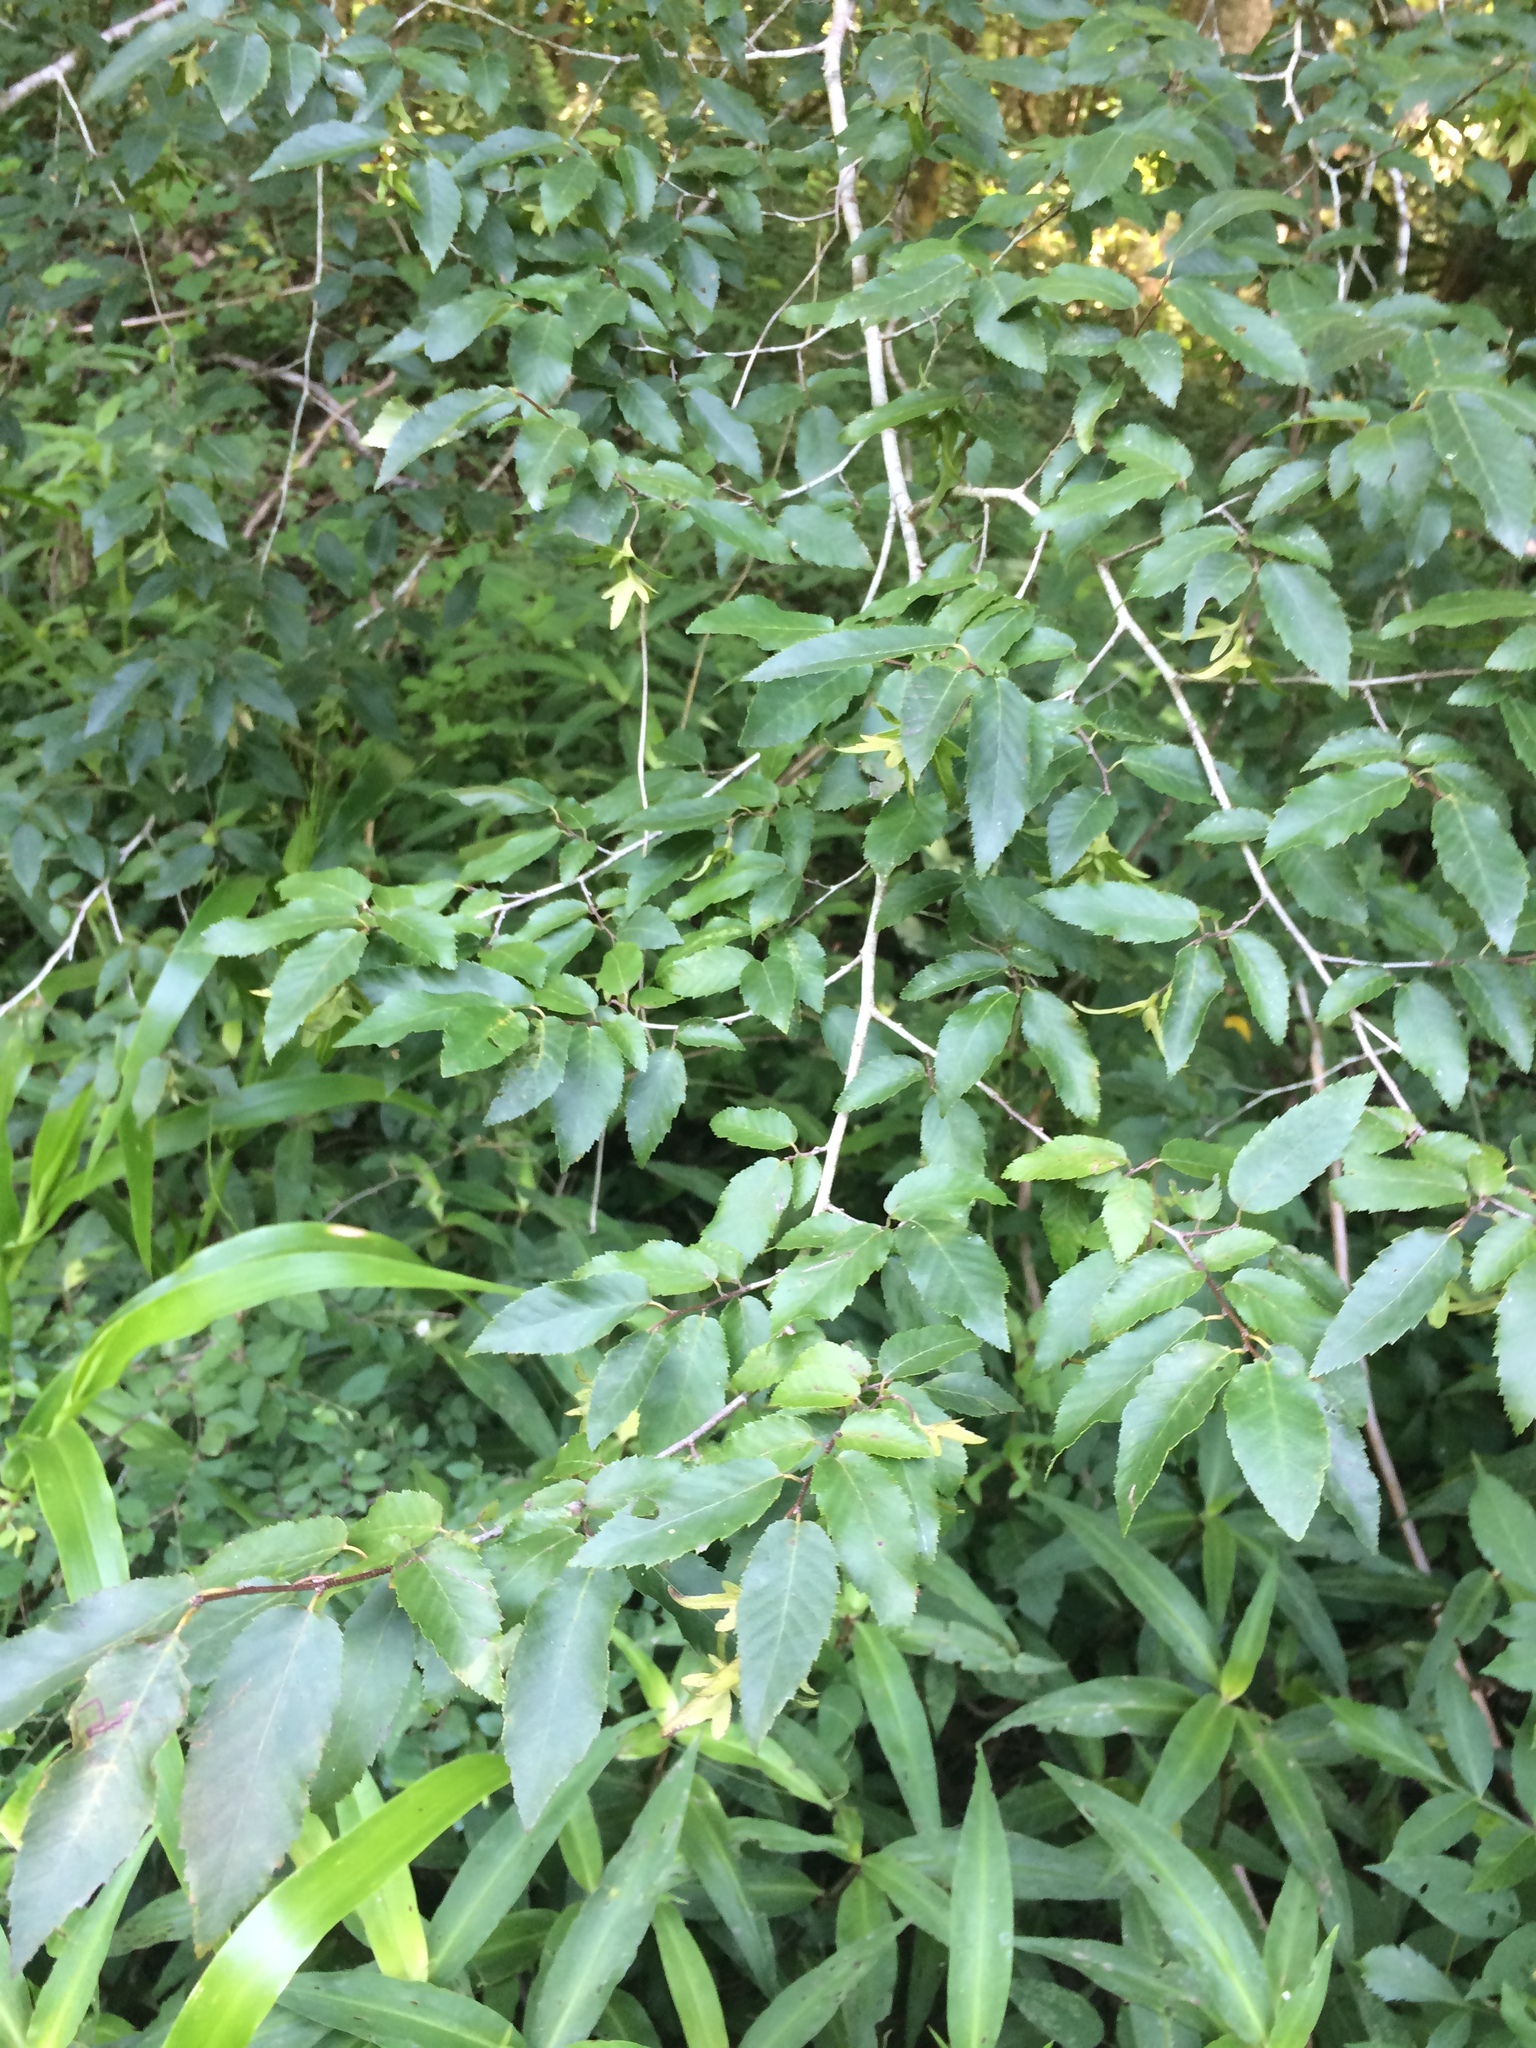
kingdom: Plantae
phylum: Tracheophyta
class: Magnoliopsida
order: Fagales
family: Betulaceae
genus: Carpinus
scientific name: Carpinus caroliniana
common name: American hornbeam
